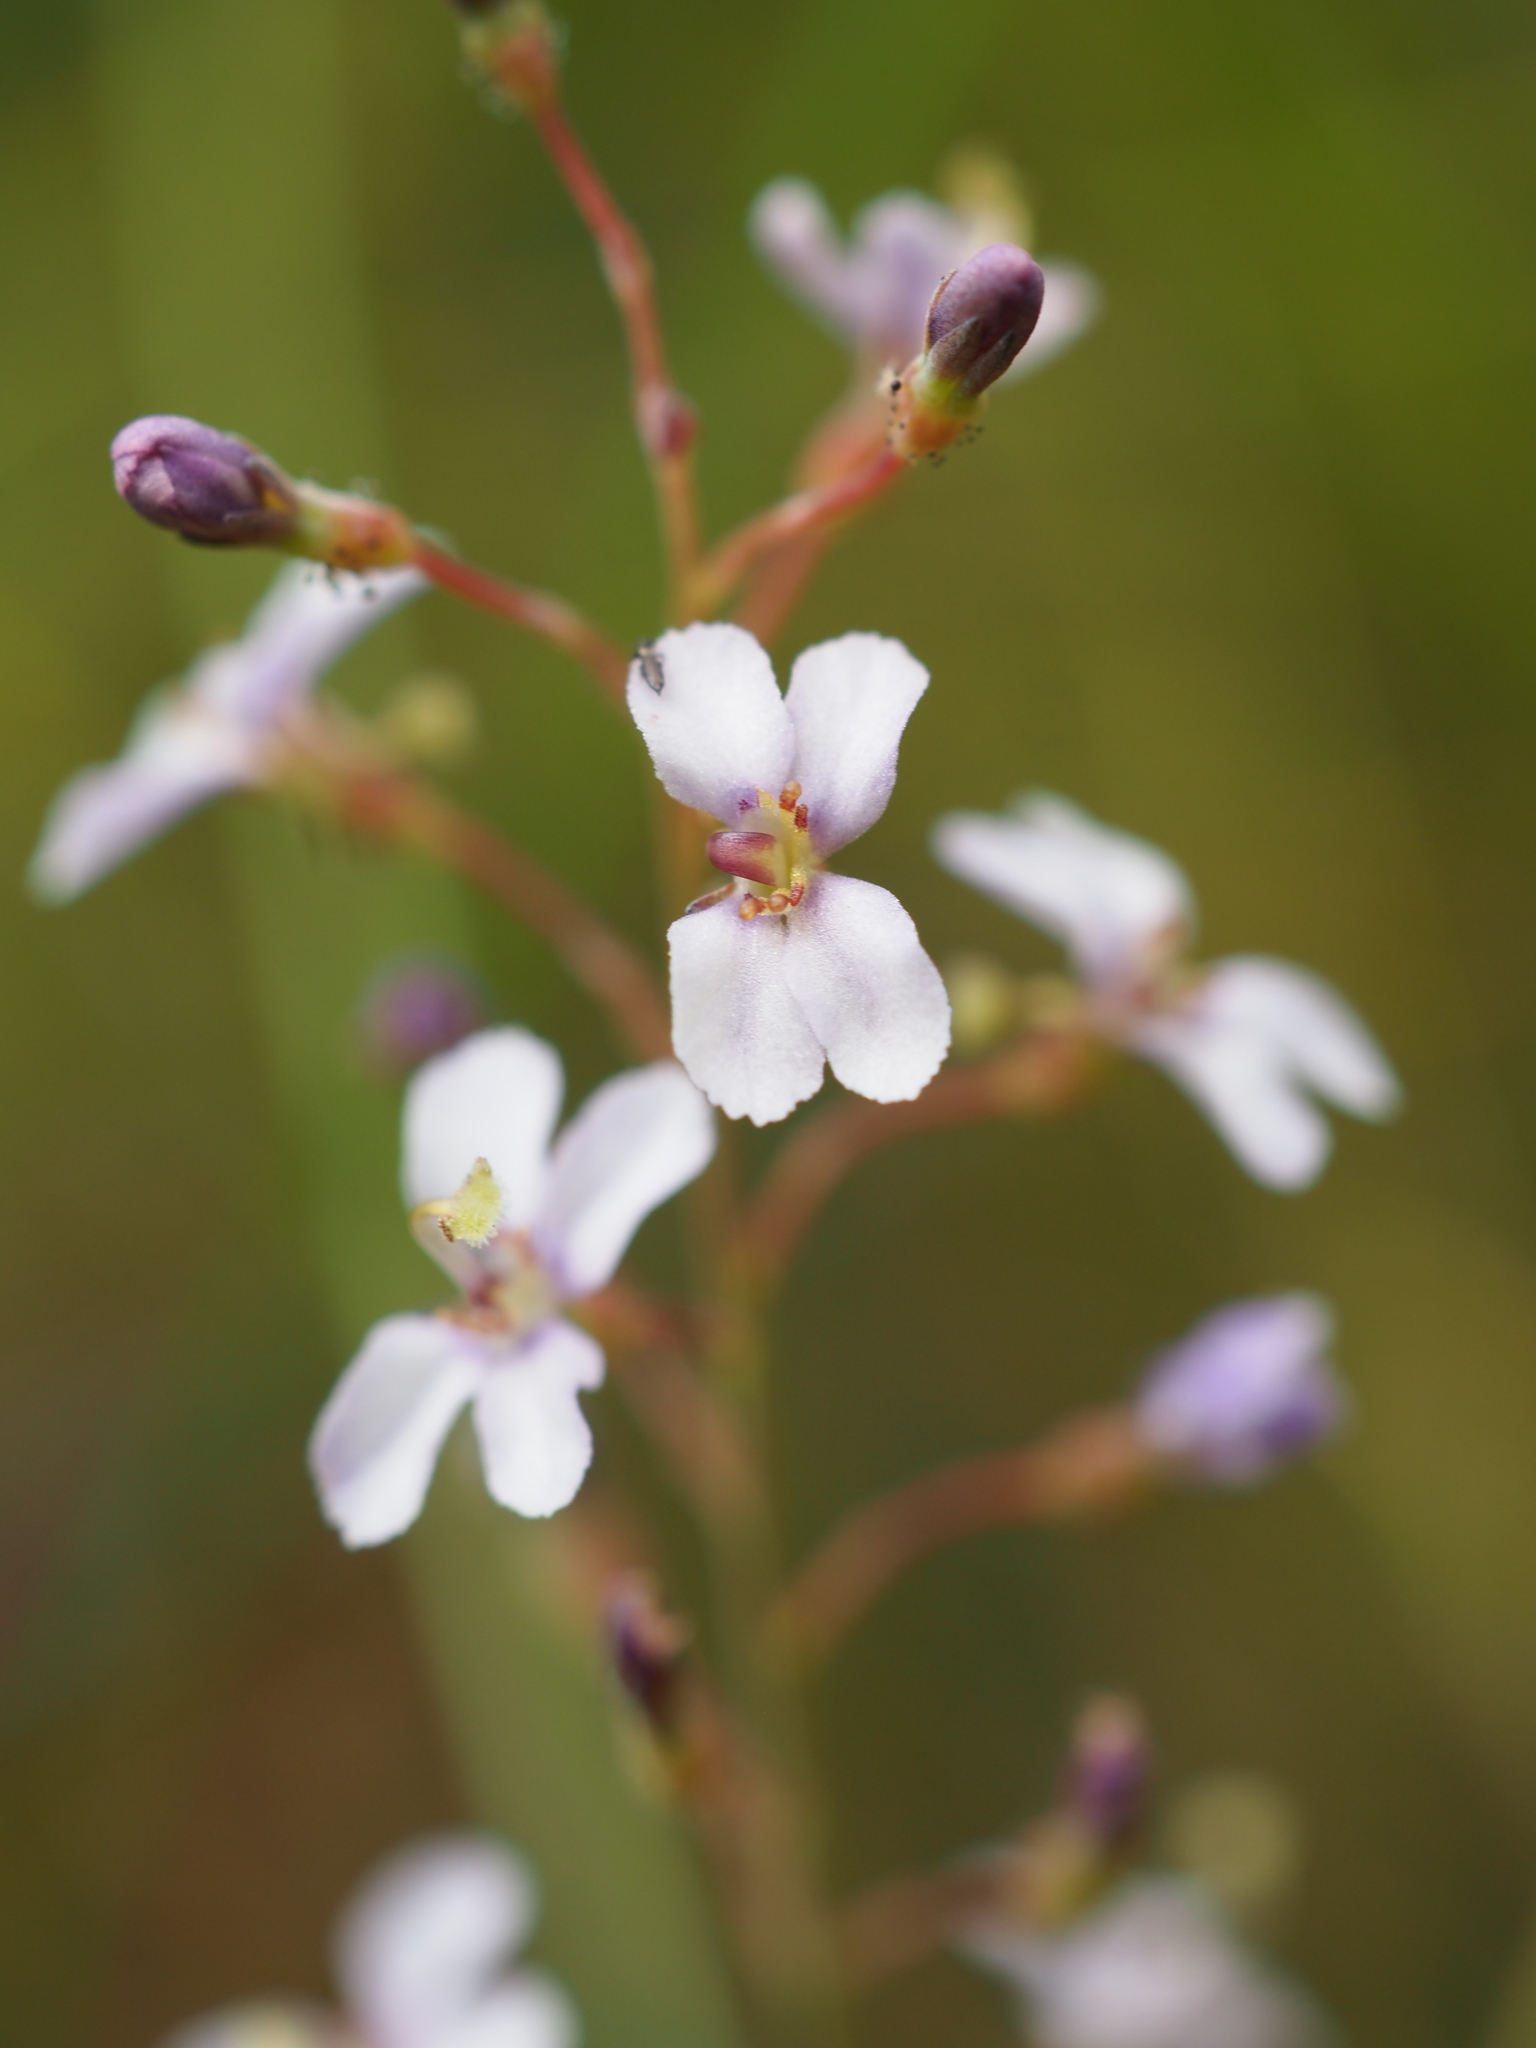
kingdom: Plantae
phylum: Tracheophyta
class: Magnoliopsida
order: Asterales
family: Stylidiaceae
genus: Stylidium
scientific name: Stylidium glaucum
